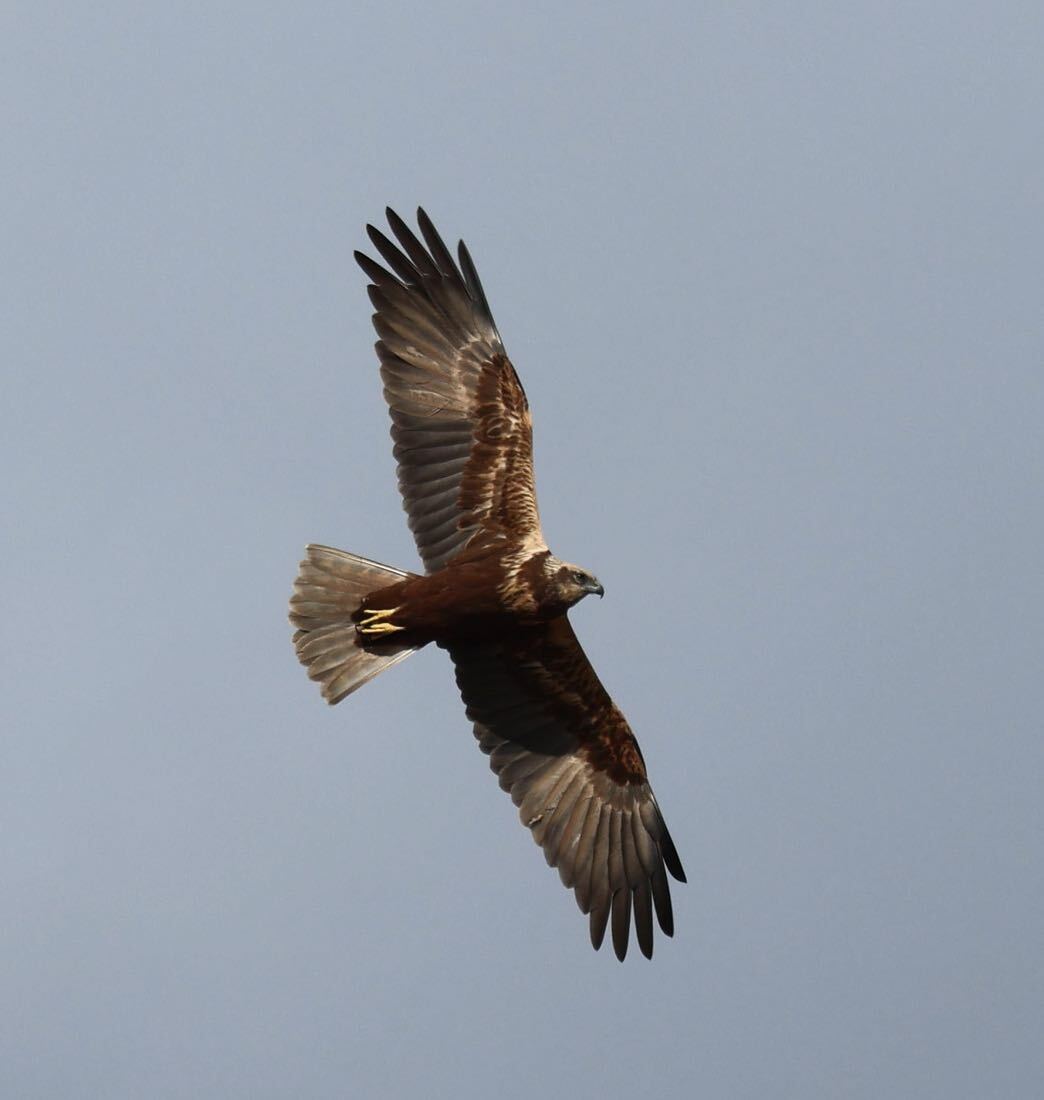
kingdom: Animalia
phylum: Chordata
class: Aves
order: Accipitriformes
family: Accipitridae
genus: Circus
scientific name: Circus aeruginosus
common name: Western marsh harrier
